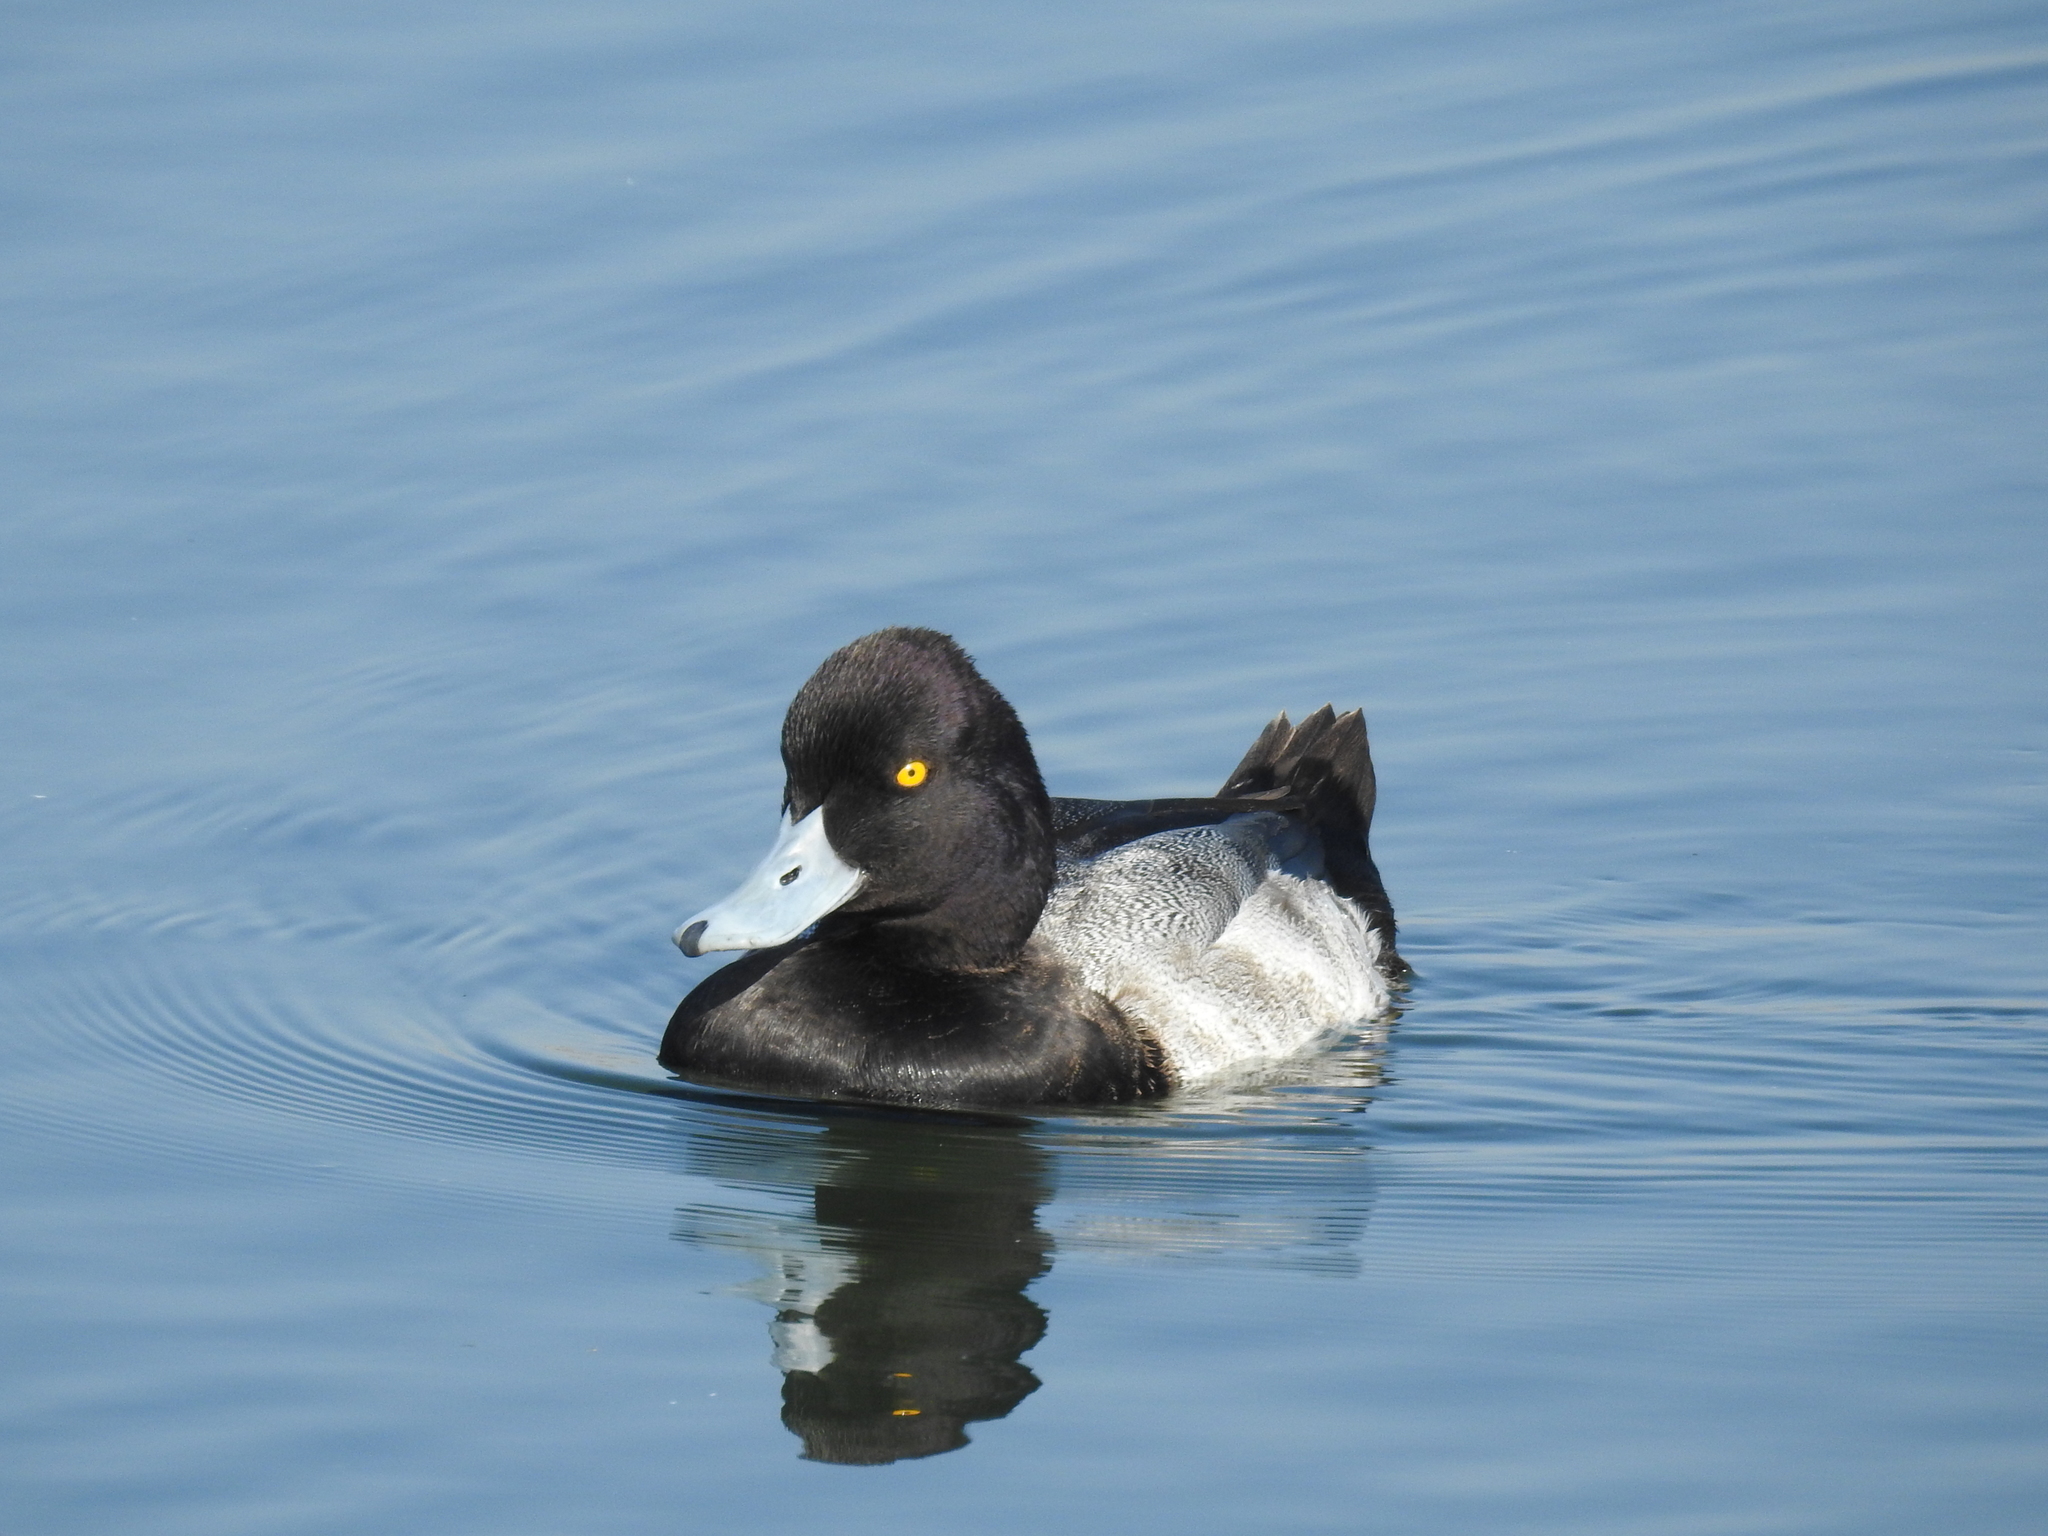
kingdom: Animalia
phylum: Chordata
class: Aves
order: Anseriformes
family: Anatidae
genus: Aythya
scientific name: Aythya affinis
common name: Lesser scaup
